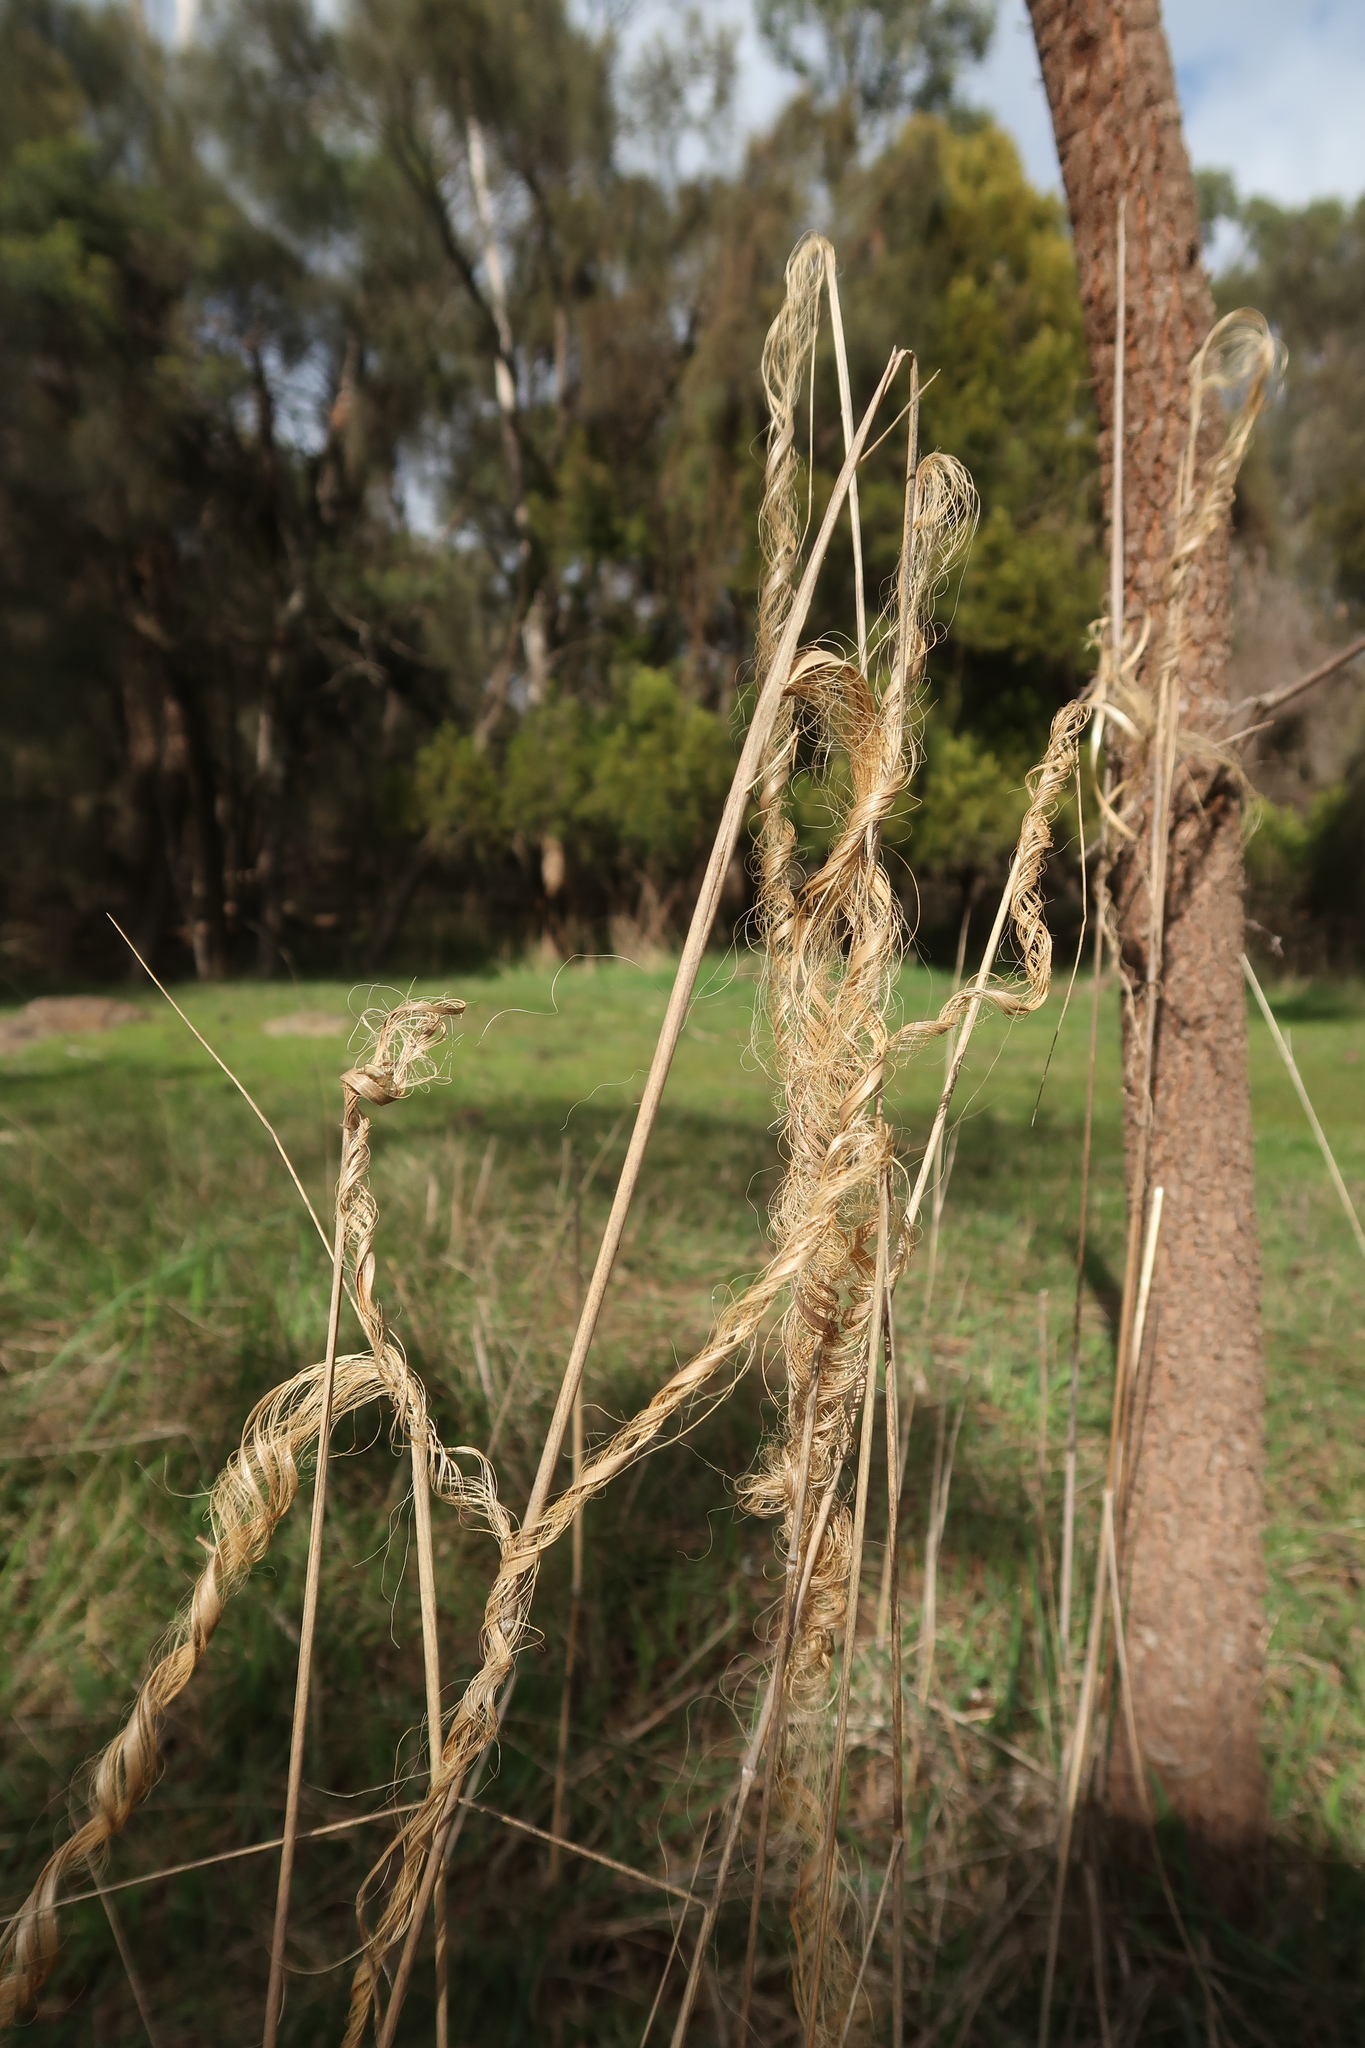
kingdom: Plantae
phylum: Tracheophyta
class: Liliopsida
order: Poales
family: Poaceae
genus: Austrostipa
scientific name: Austrostipa stuposa
